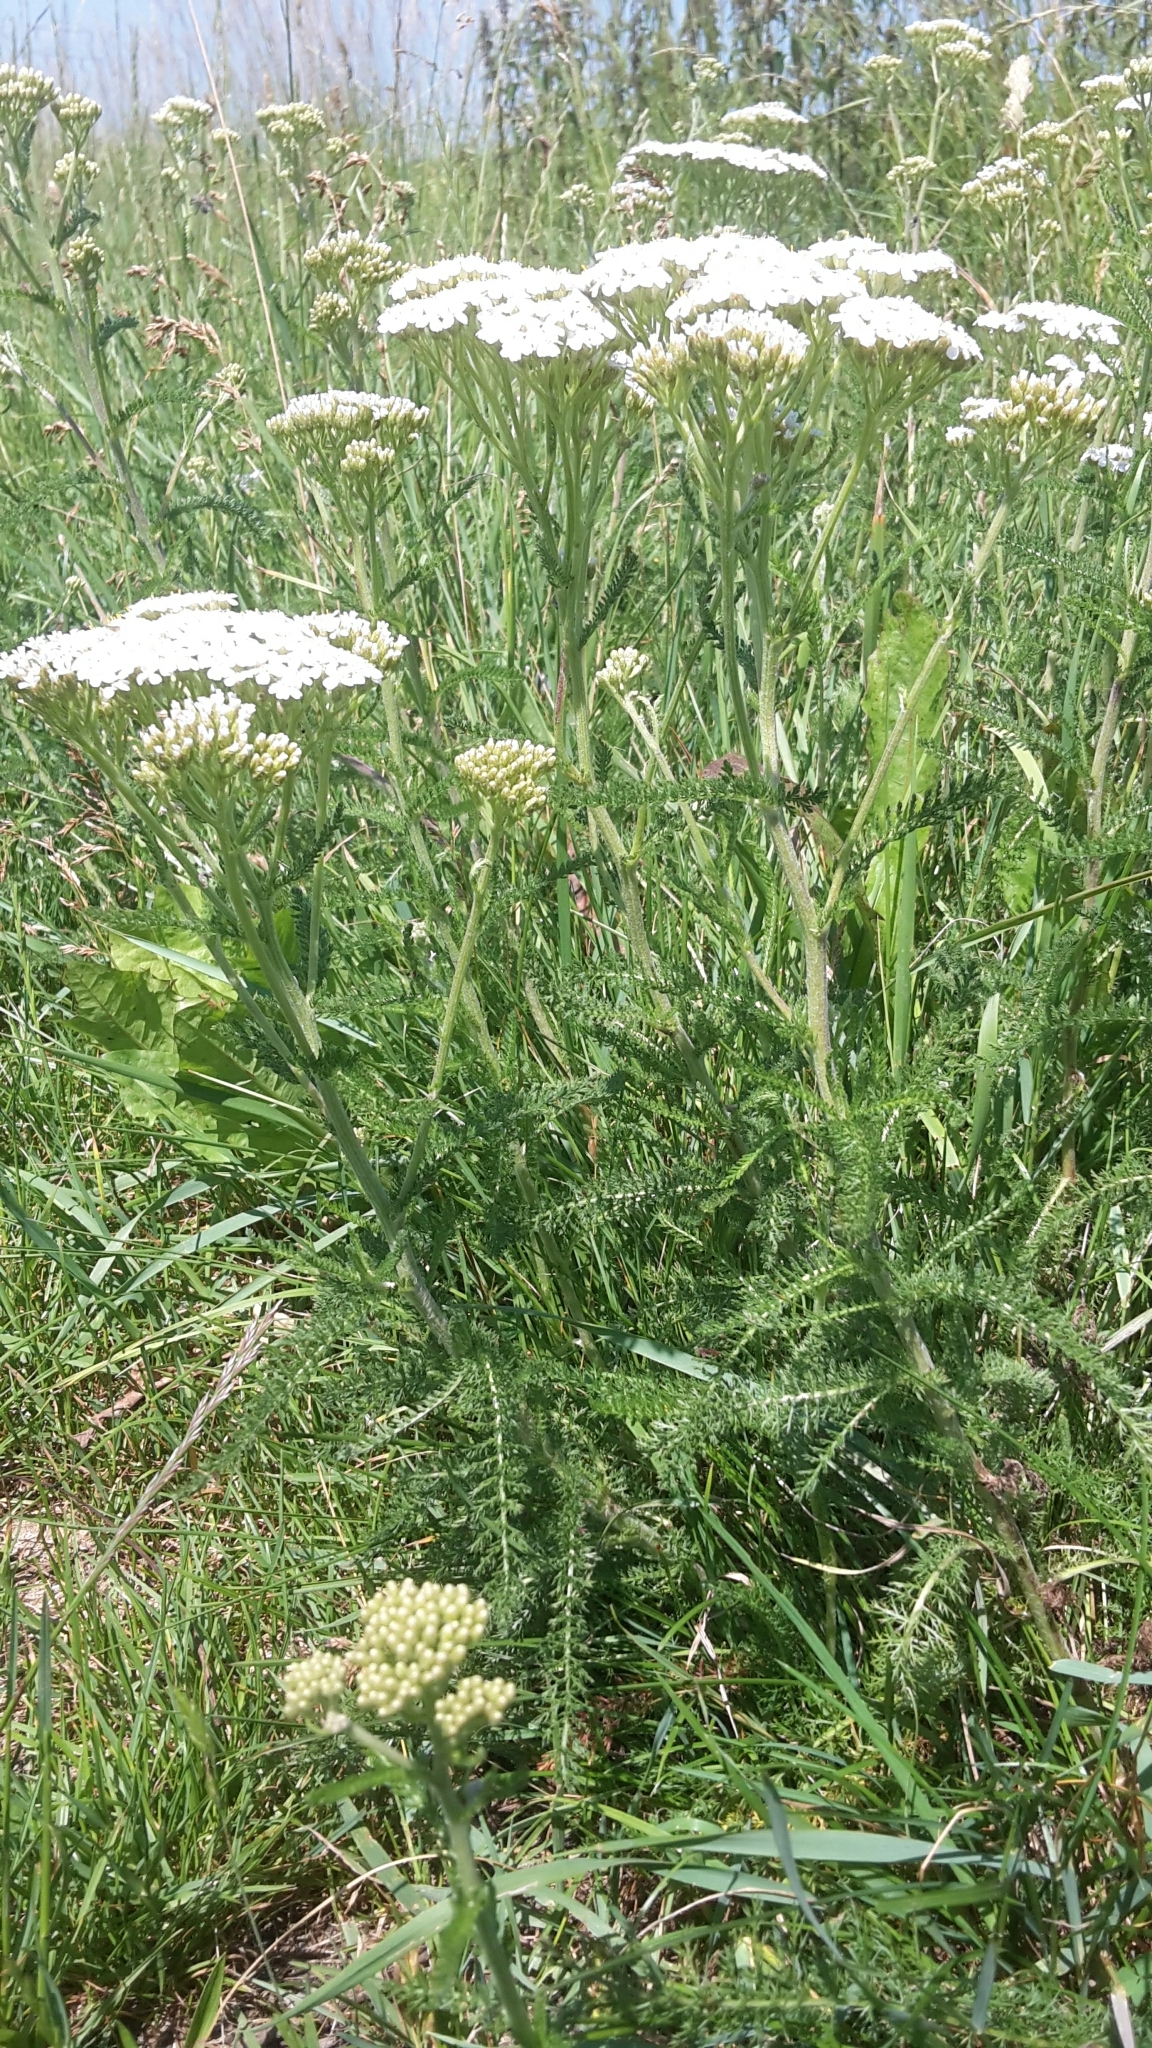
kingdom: Plantae
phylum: Tracheophyta
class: Magnoliopsida
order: Asterales
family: Asteraceae
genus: Achillea
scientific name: Achillea millefolium
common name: Yarrow
